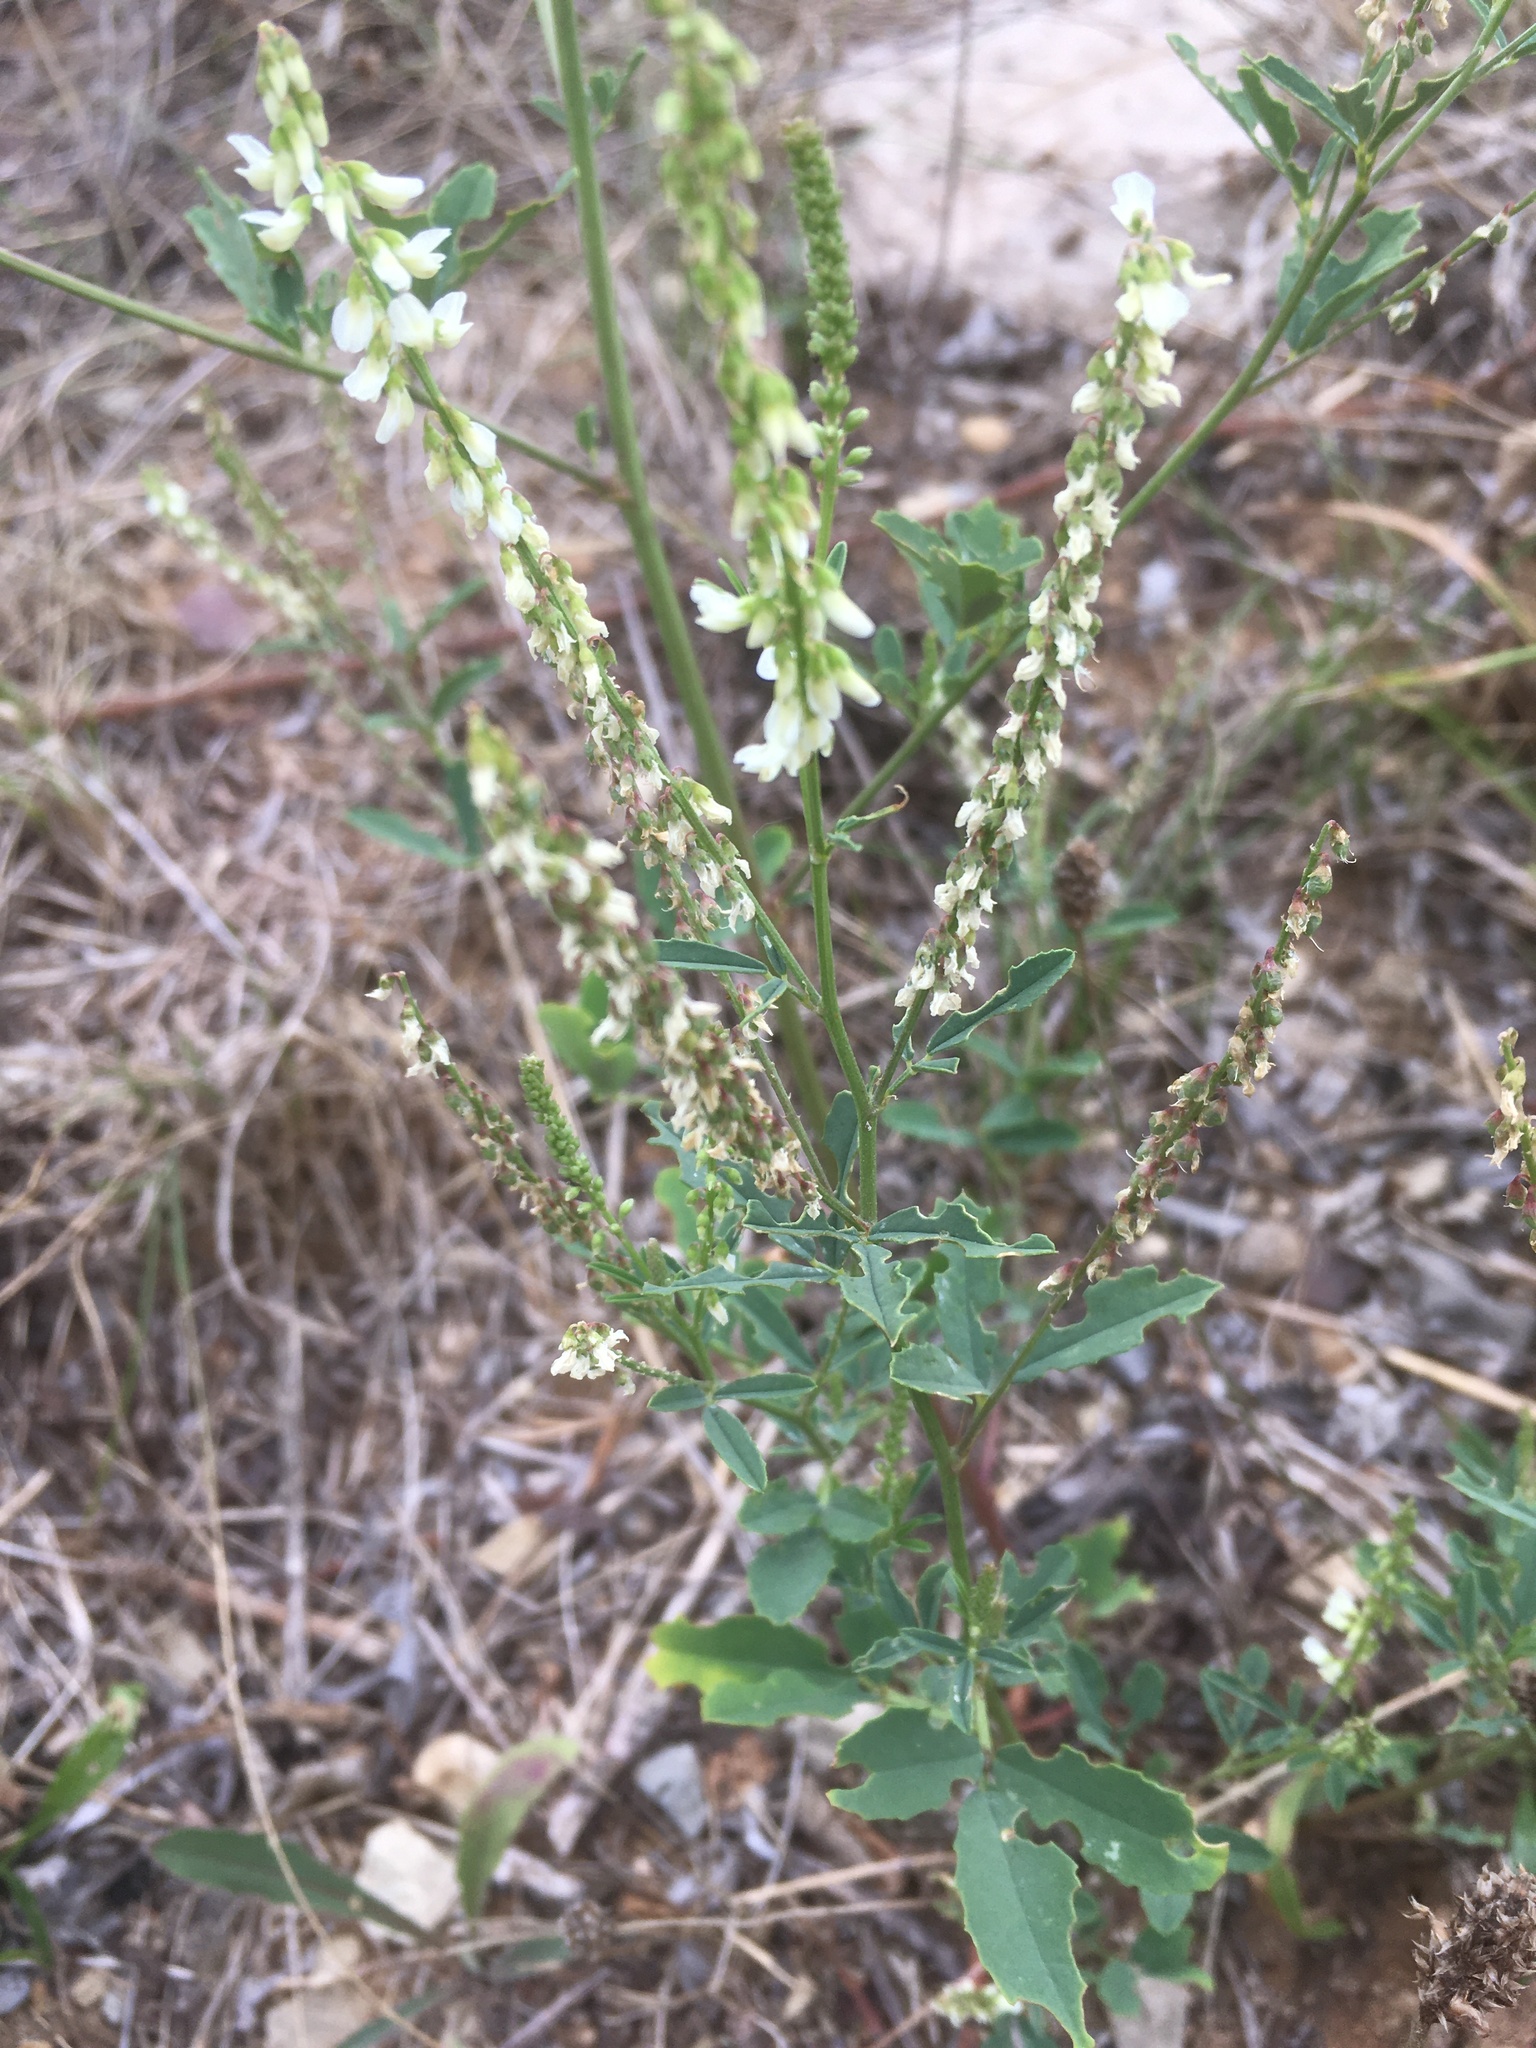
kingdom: Plantae
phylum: Tracheophyta
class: Magnoliopsida
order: Fabales
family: Fabaceae
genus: Melilotus
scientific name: Melilotus albus
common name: White melilot
